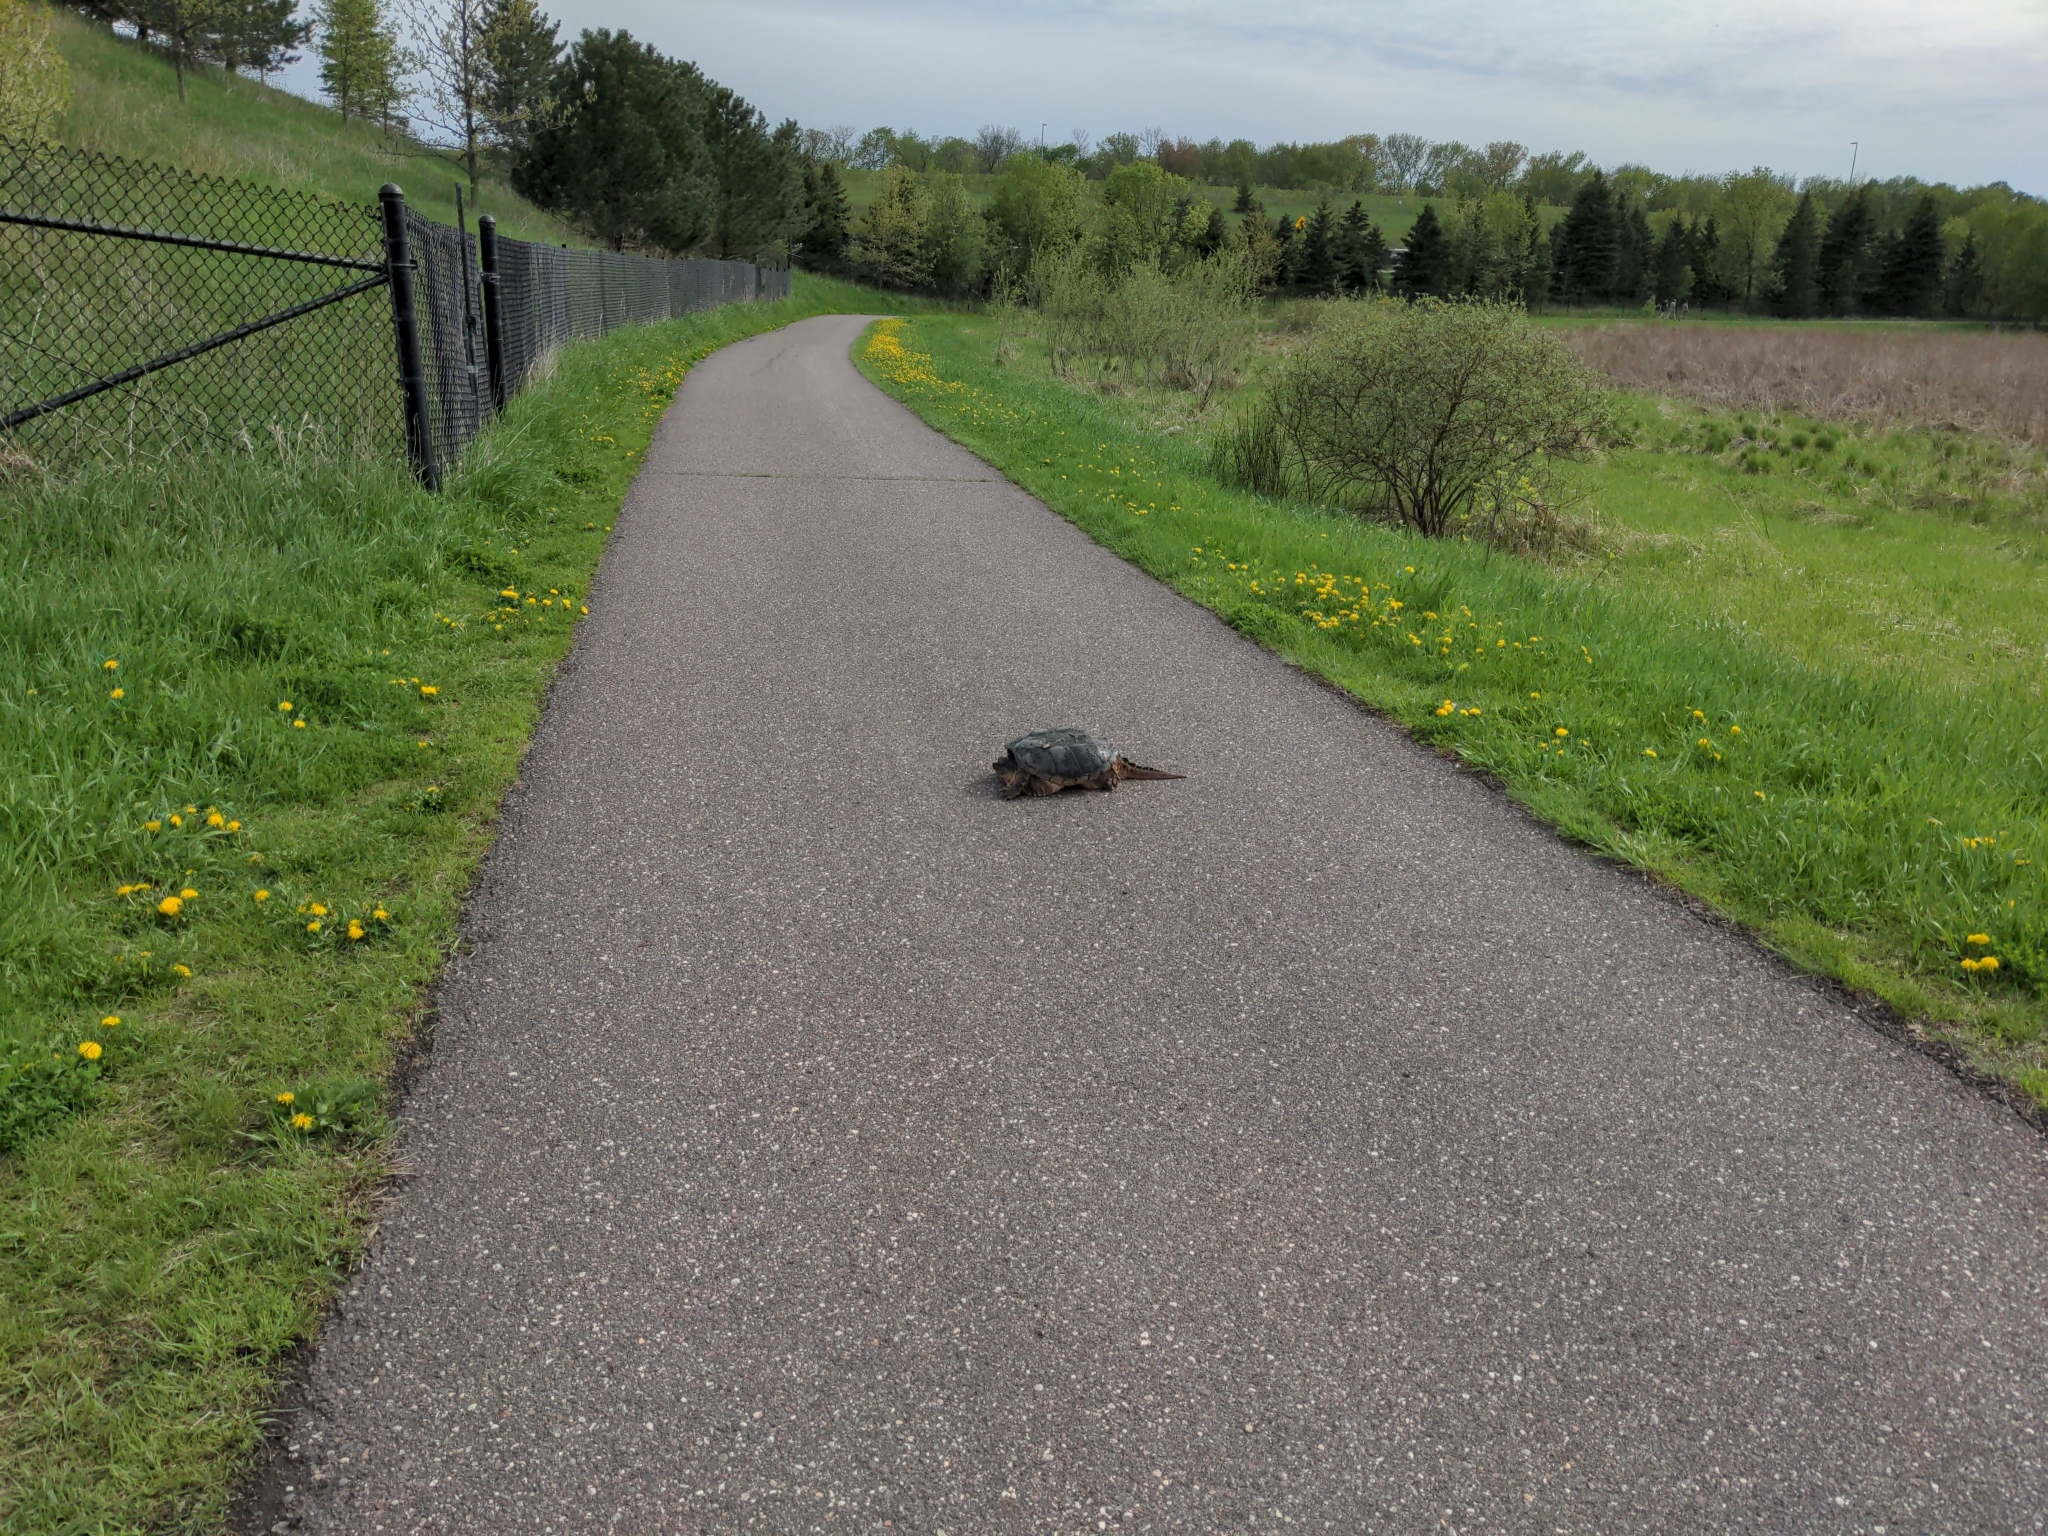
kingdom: Animalia
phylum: Chordata
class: Testudines
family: Chelydridae
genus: Chelydra
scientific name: Chelydra serpentina
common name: Common snapping turtle
